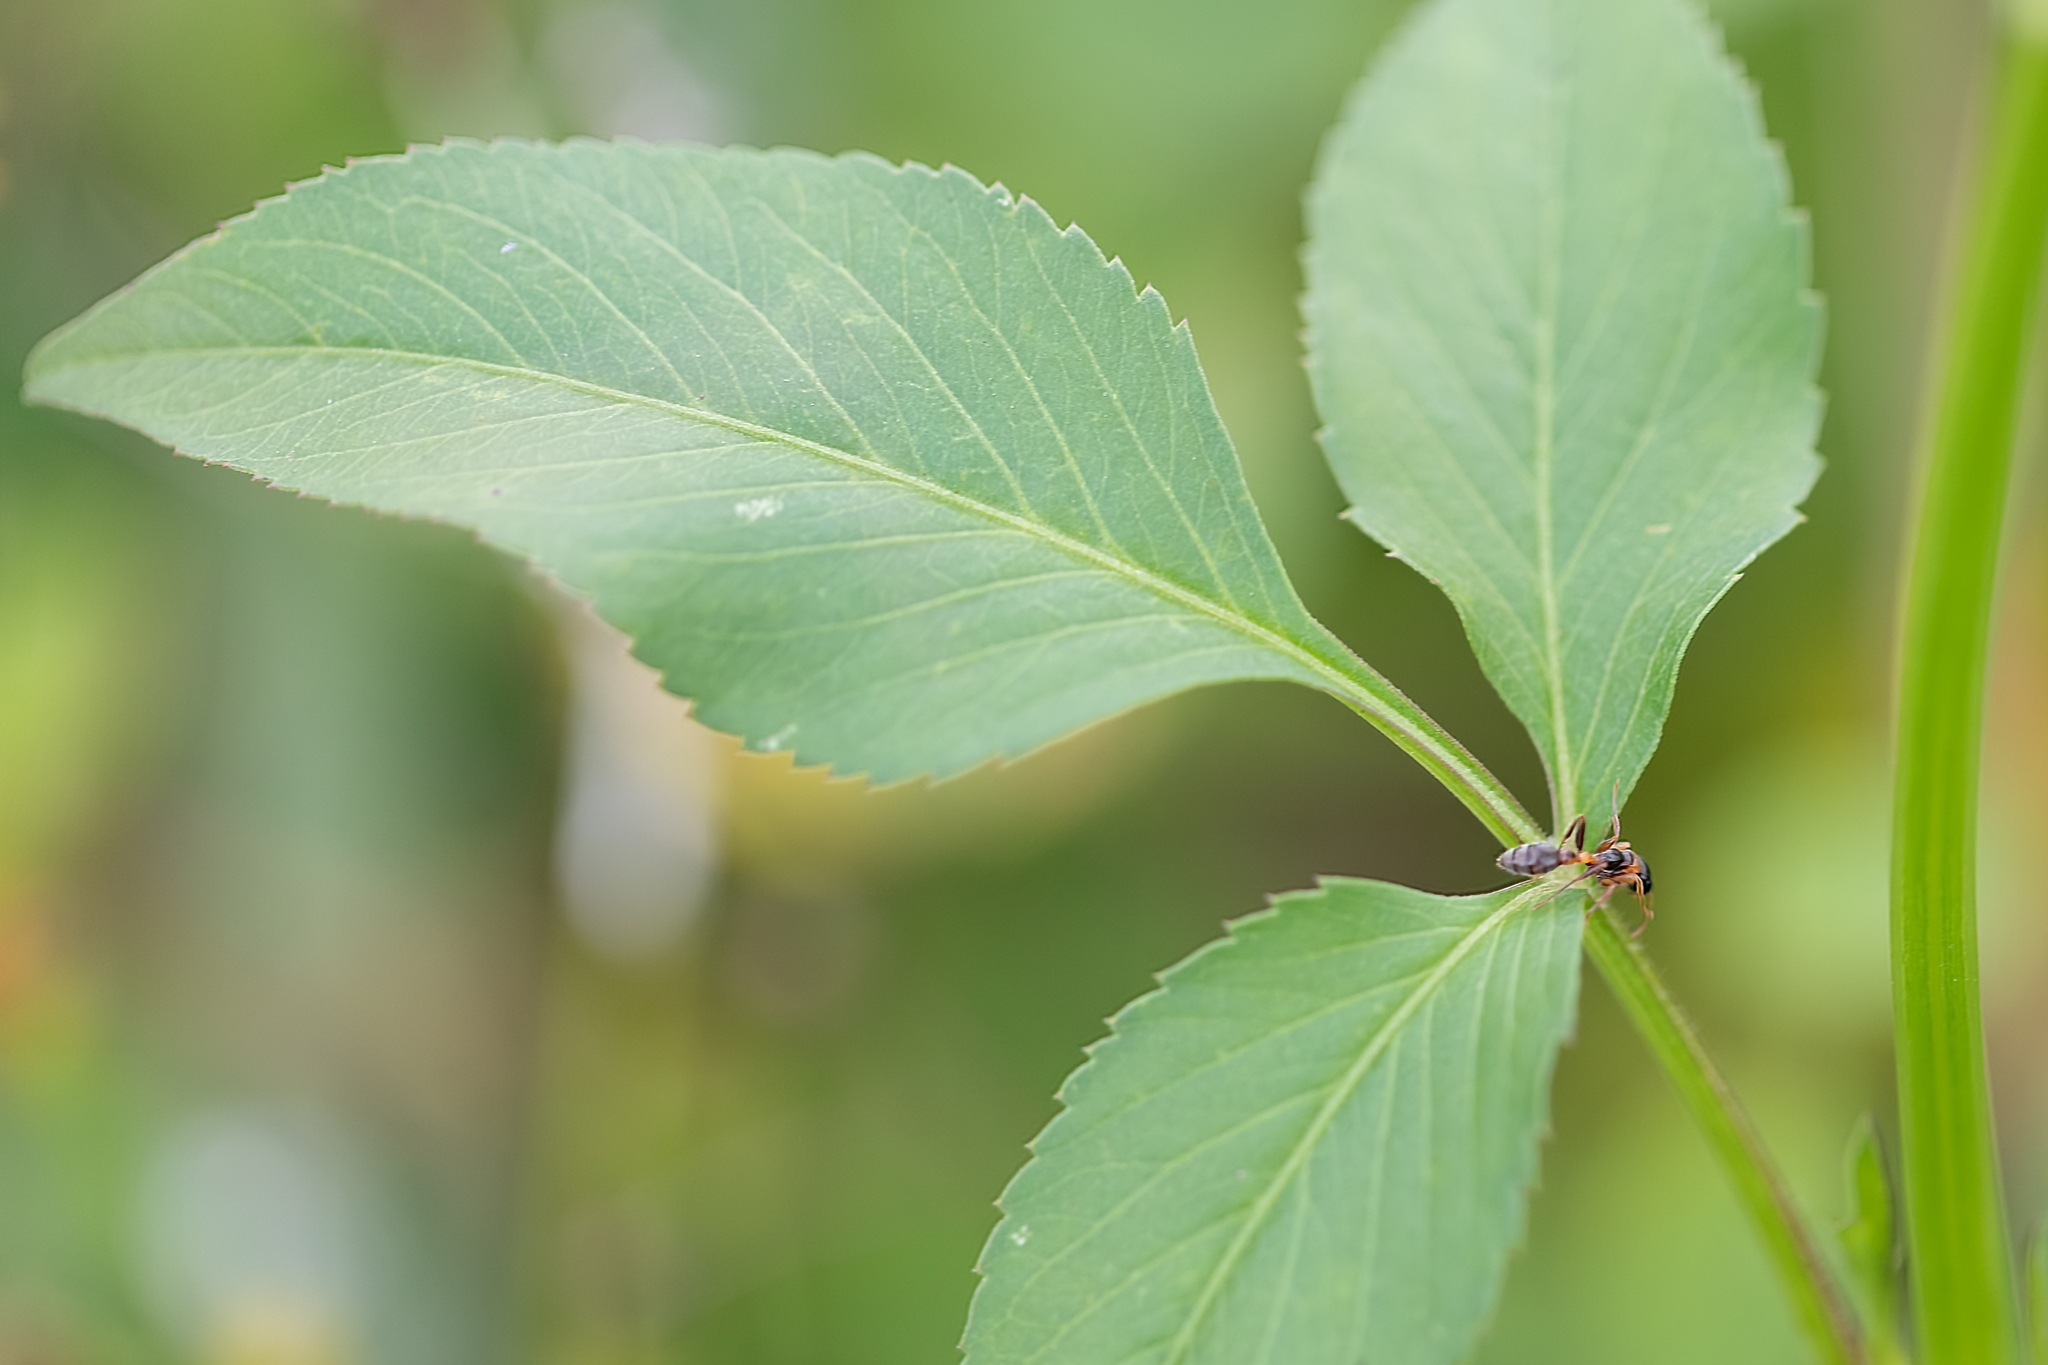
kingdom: Animalia
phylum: Arthropoda
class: Insecta
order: Hymenoptera
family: Formicidae
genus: Pseudomyrmex
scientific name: Pseudomyrmex gracilis
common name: Graceful twig ant
